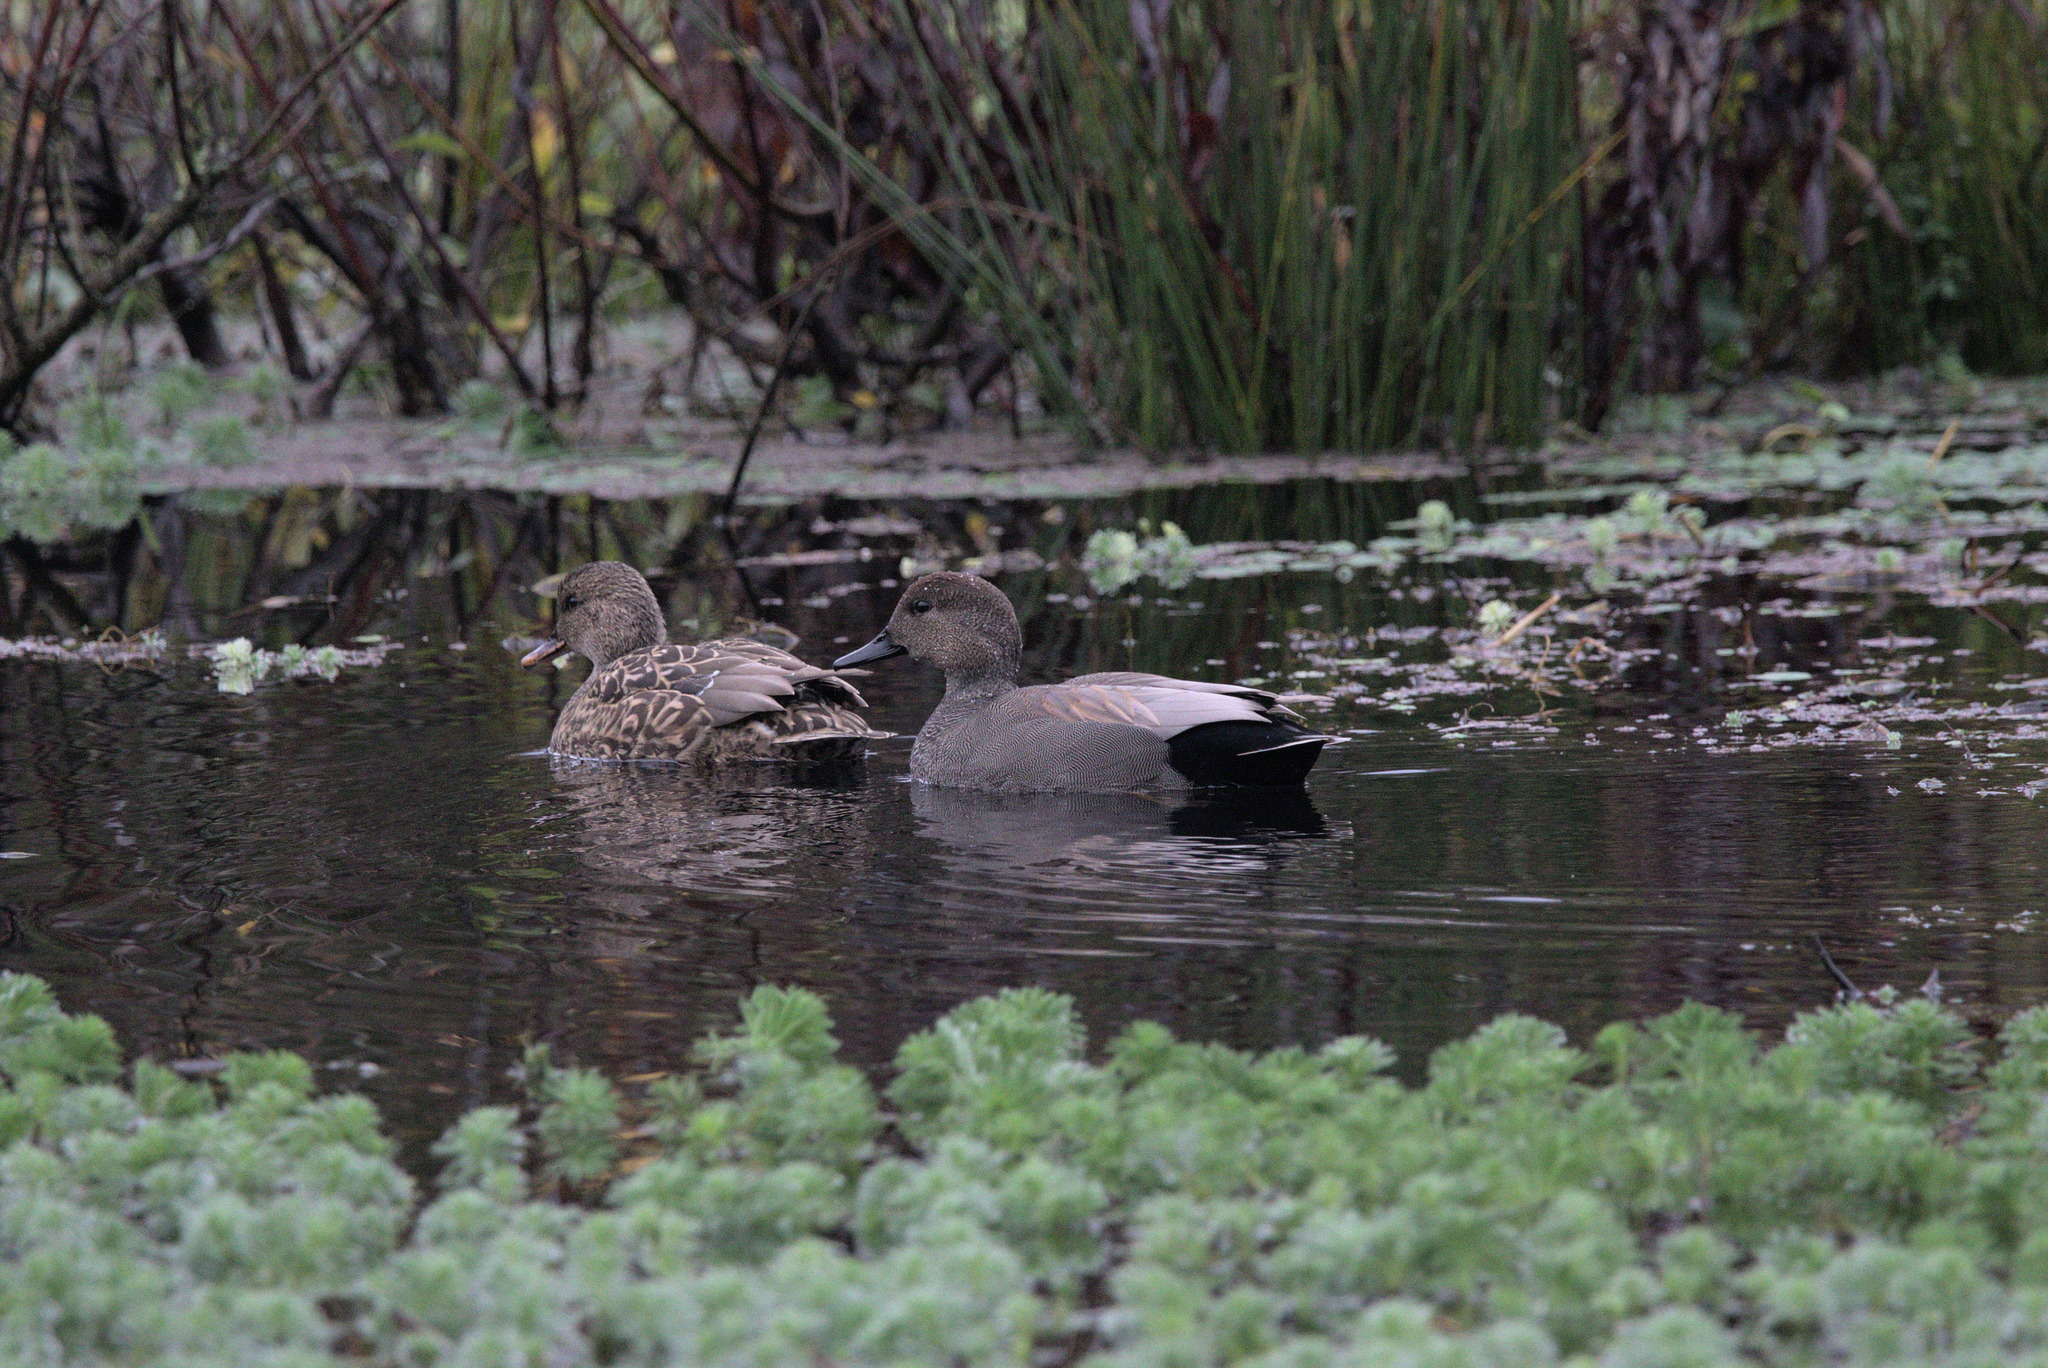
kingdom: Animalia
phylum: Chordata
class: Aves
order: Anseriformes
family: Anatidae
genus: Mareca
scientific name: Mareca strepera
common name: Gadwall
